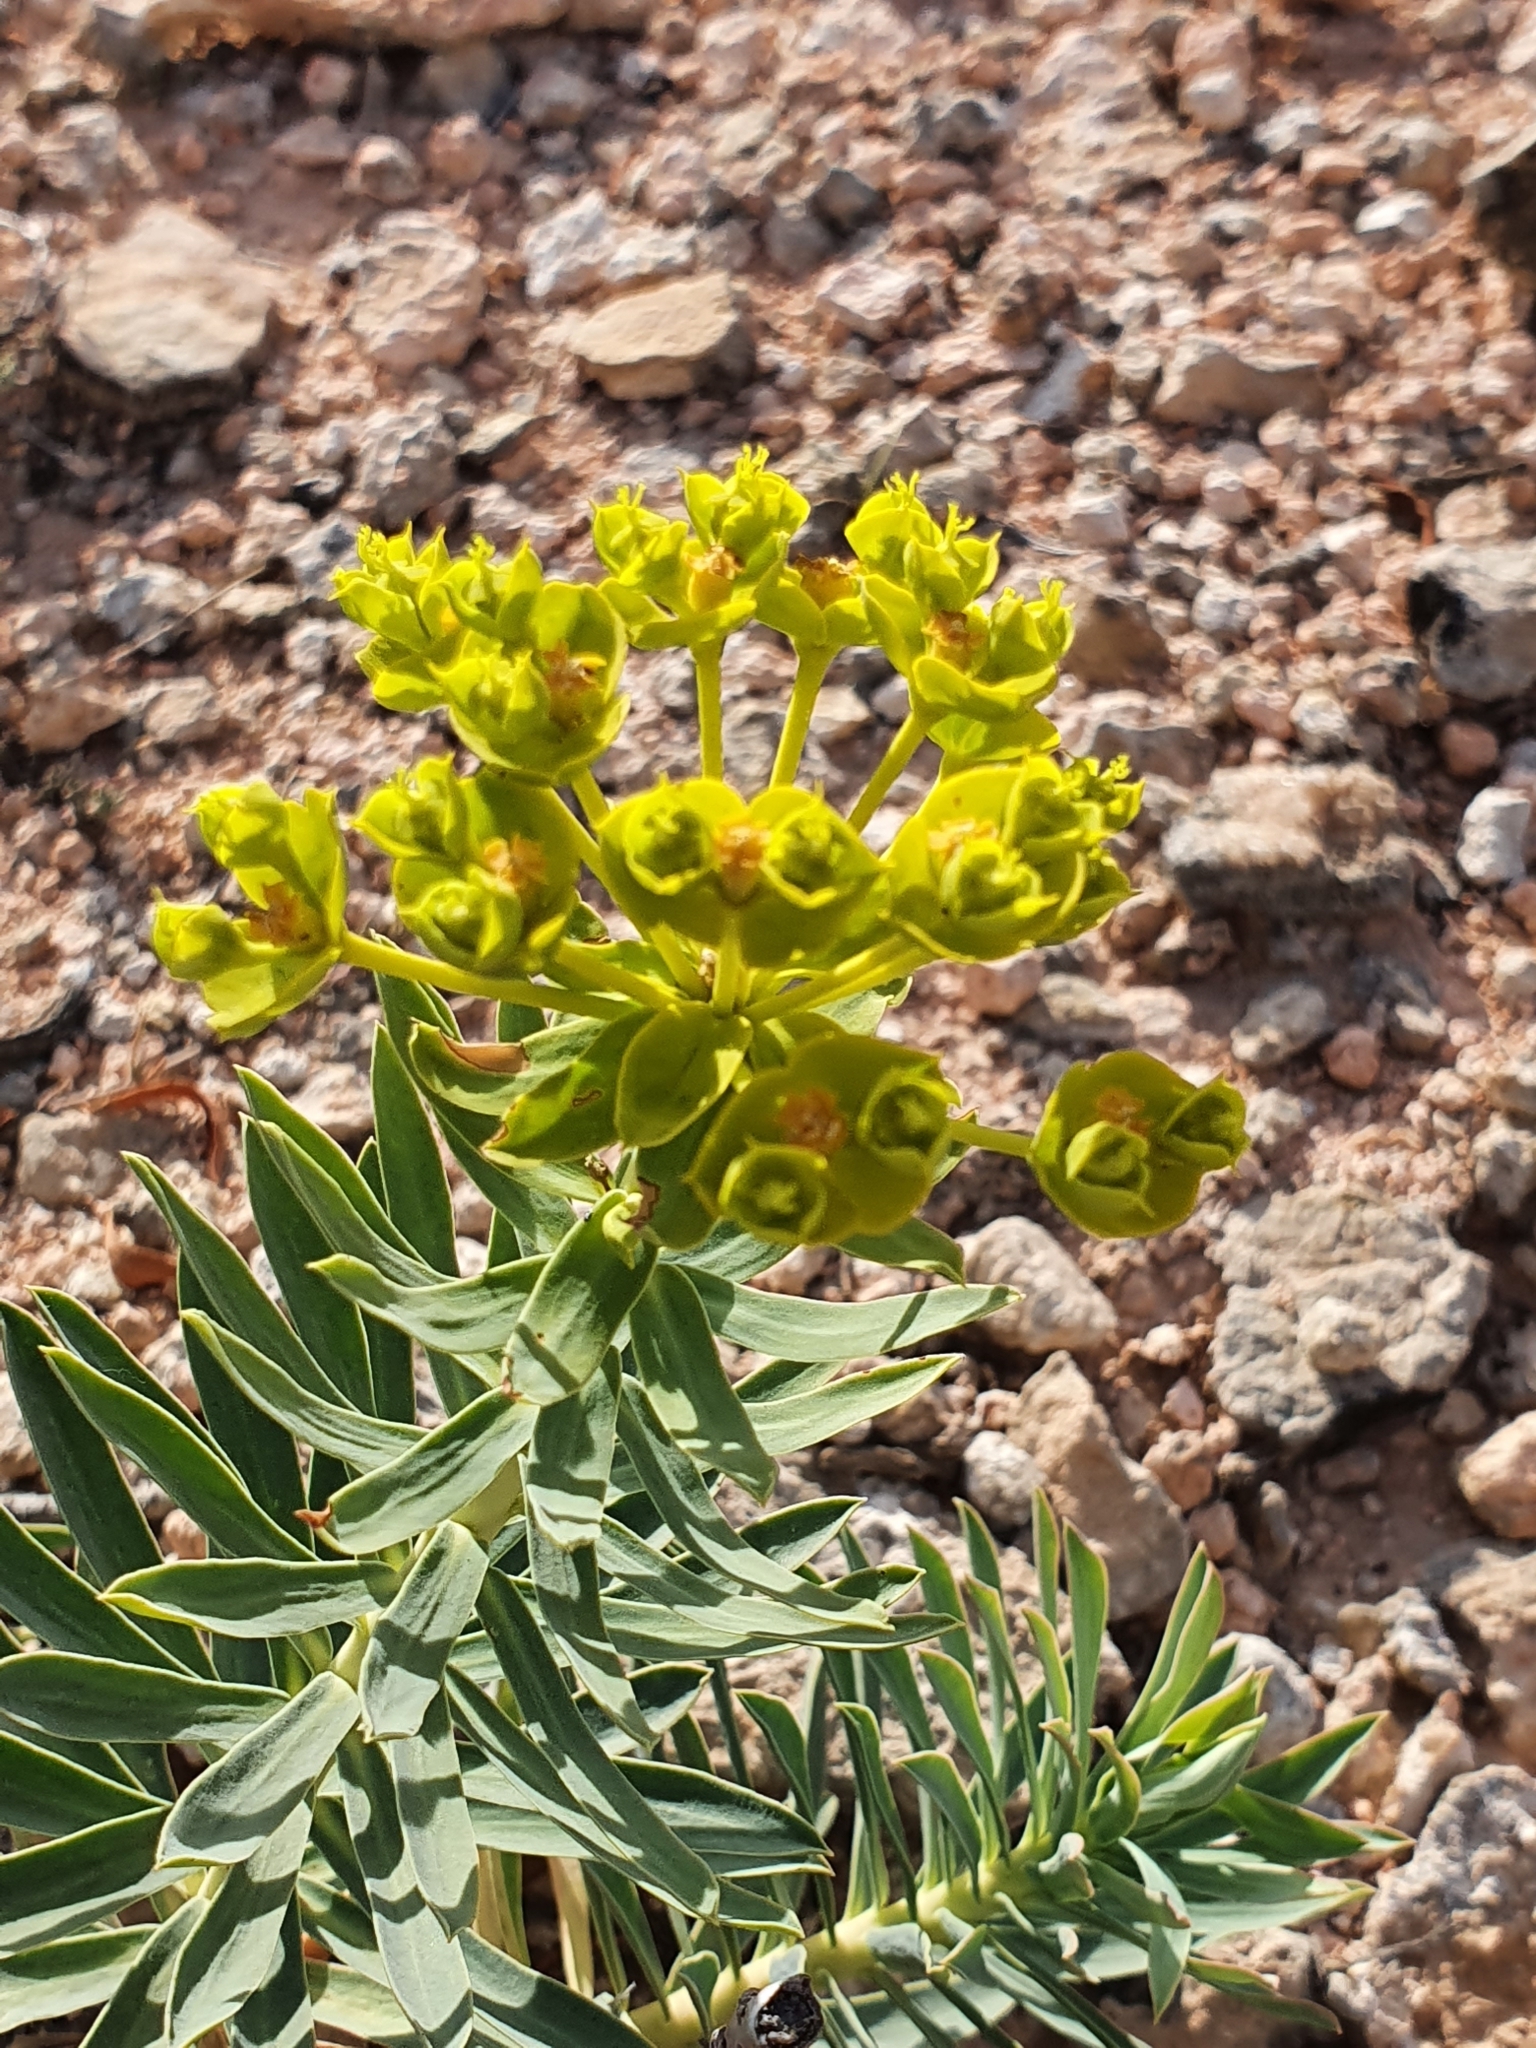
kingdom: Plantae
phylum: Tracheophyta
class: Magnoliopsida
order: Malpighiales
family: Euphorbiaceae
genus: Euphorbia
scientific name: Euphorbia nicaeensis
